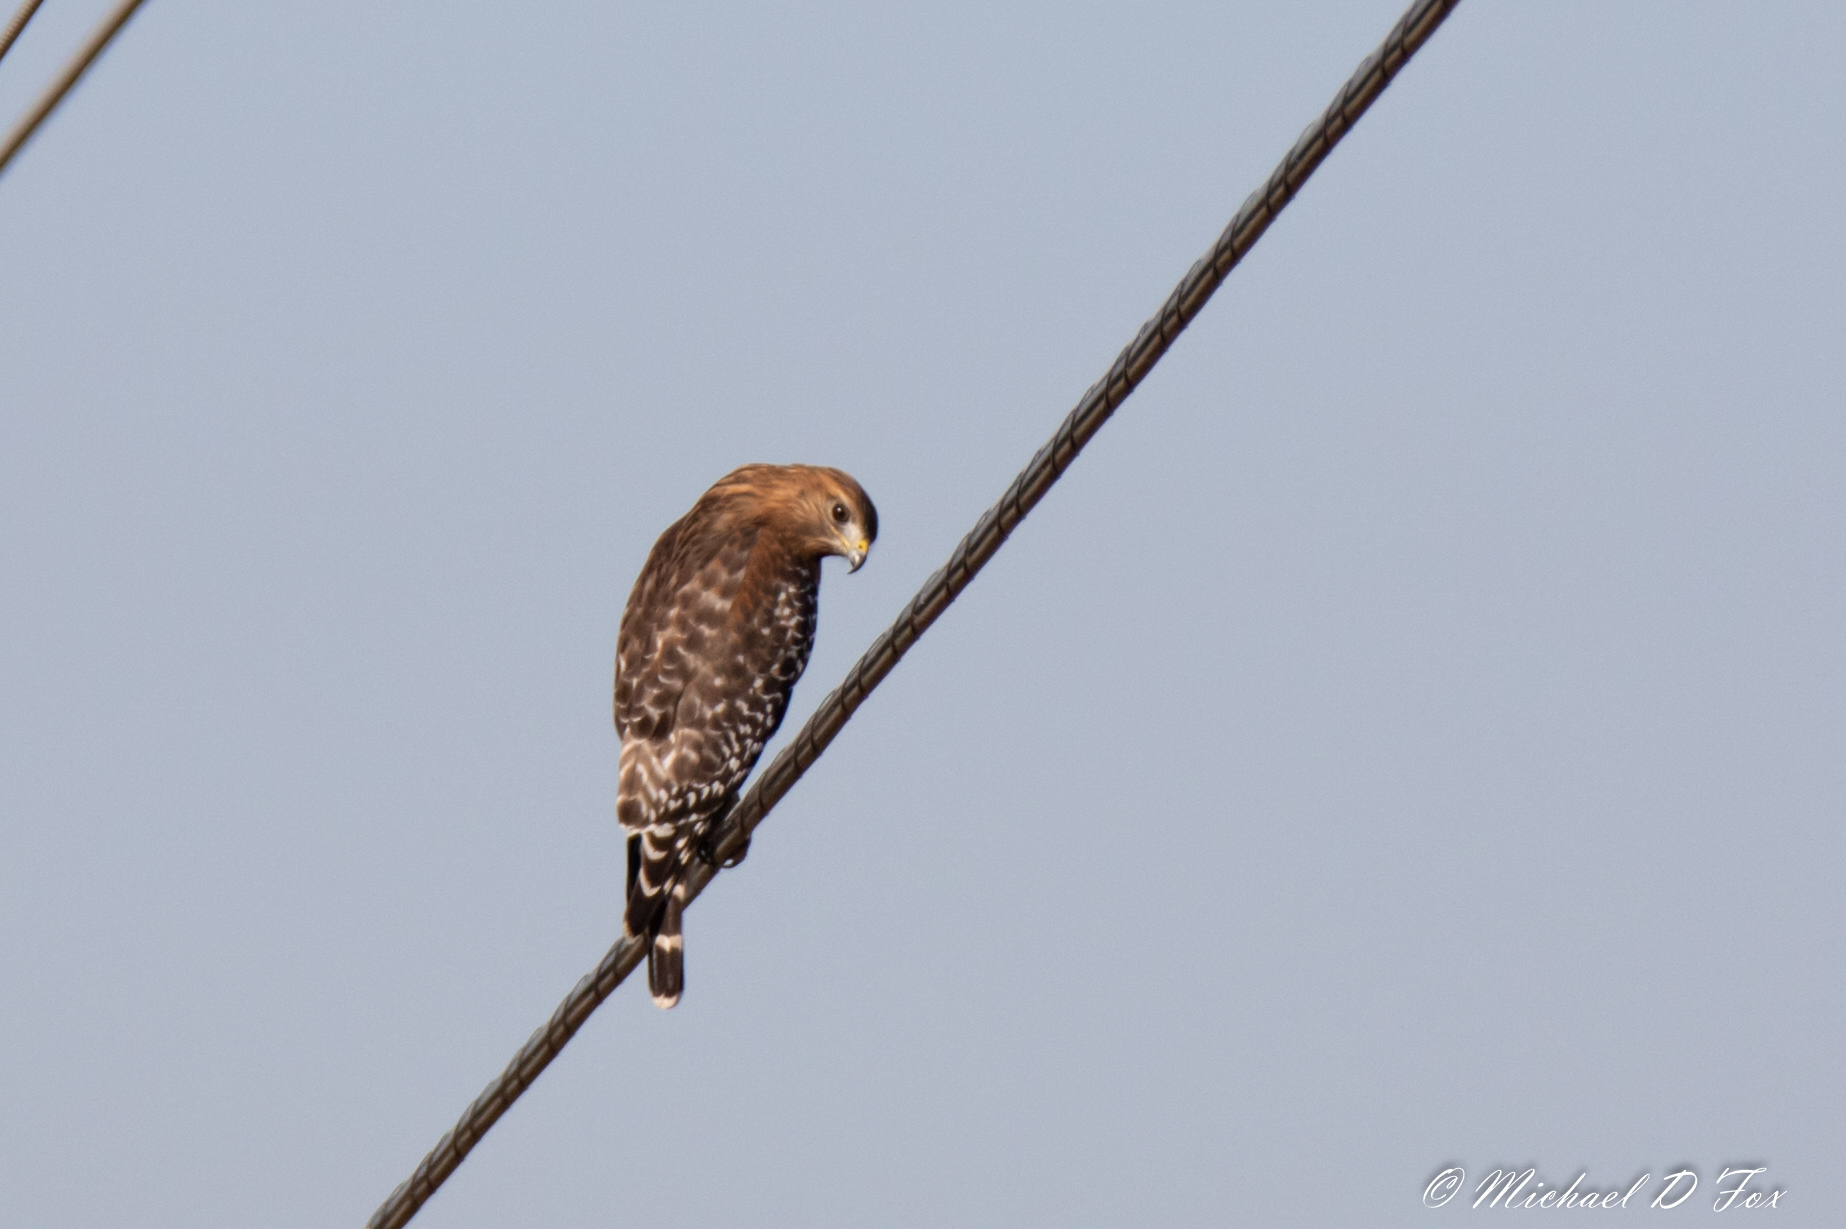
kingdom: Animalia
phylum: Chordata
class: Aves
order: Accipitriformes
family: Accipitridae
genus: Buteo
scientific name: Buteo lineatus
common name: Red-shouldered hawk
